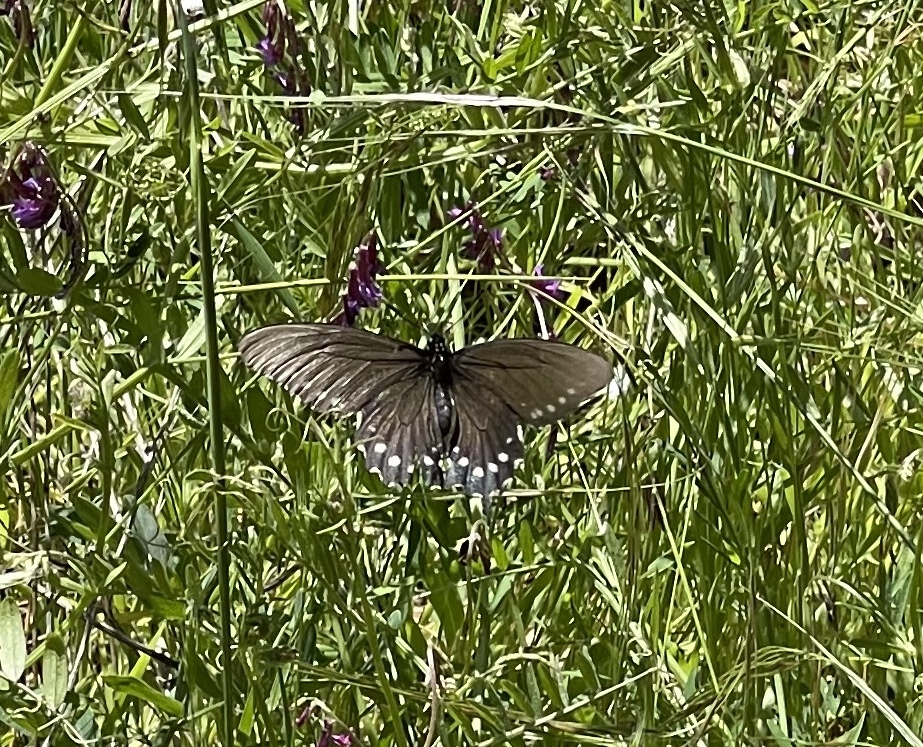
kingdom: Animalia
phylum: Arthropoda
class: Insecta
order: Lepidoptera
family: Papilionidae
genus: Battus
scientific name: Battus philenor
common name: Pipevine swallowtail
